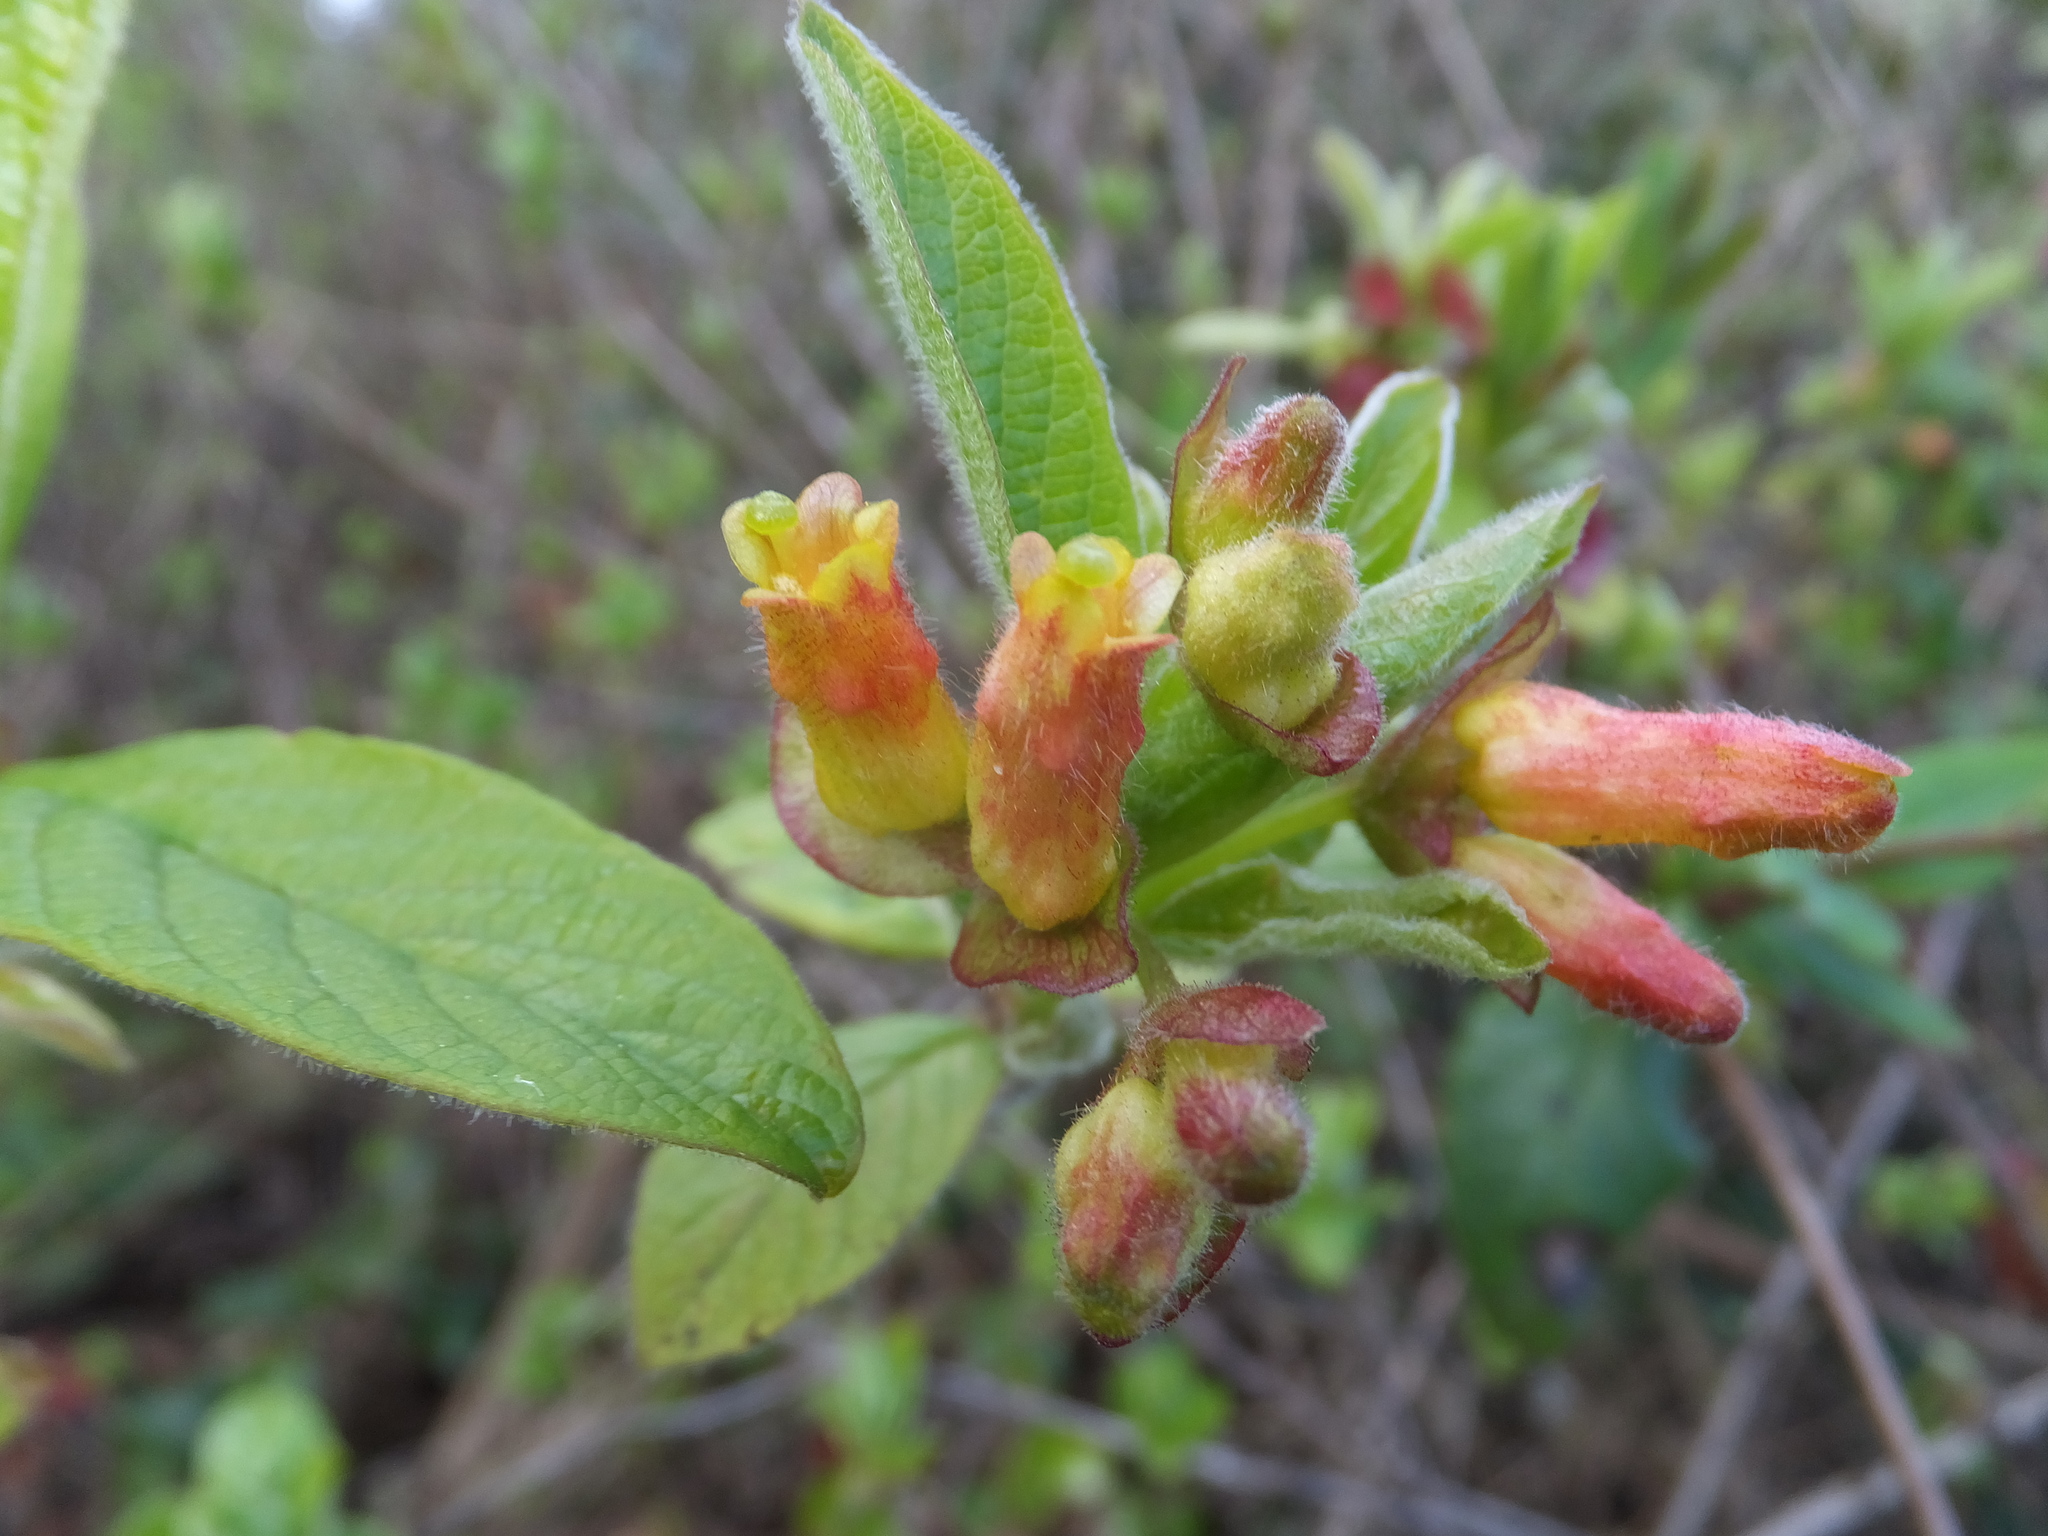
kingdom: Plantae
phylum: Tracheophyta
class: Magnoliopsida
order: Dipsacales
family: Caprifoliaceae
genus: Lonicera
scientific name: Lonicera involucrata
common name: Californian honeysuckle
